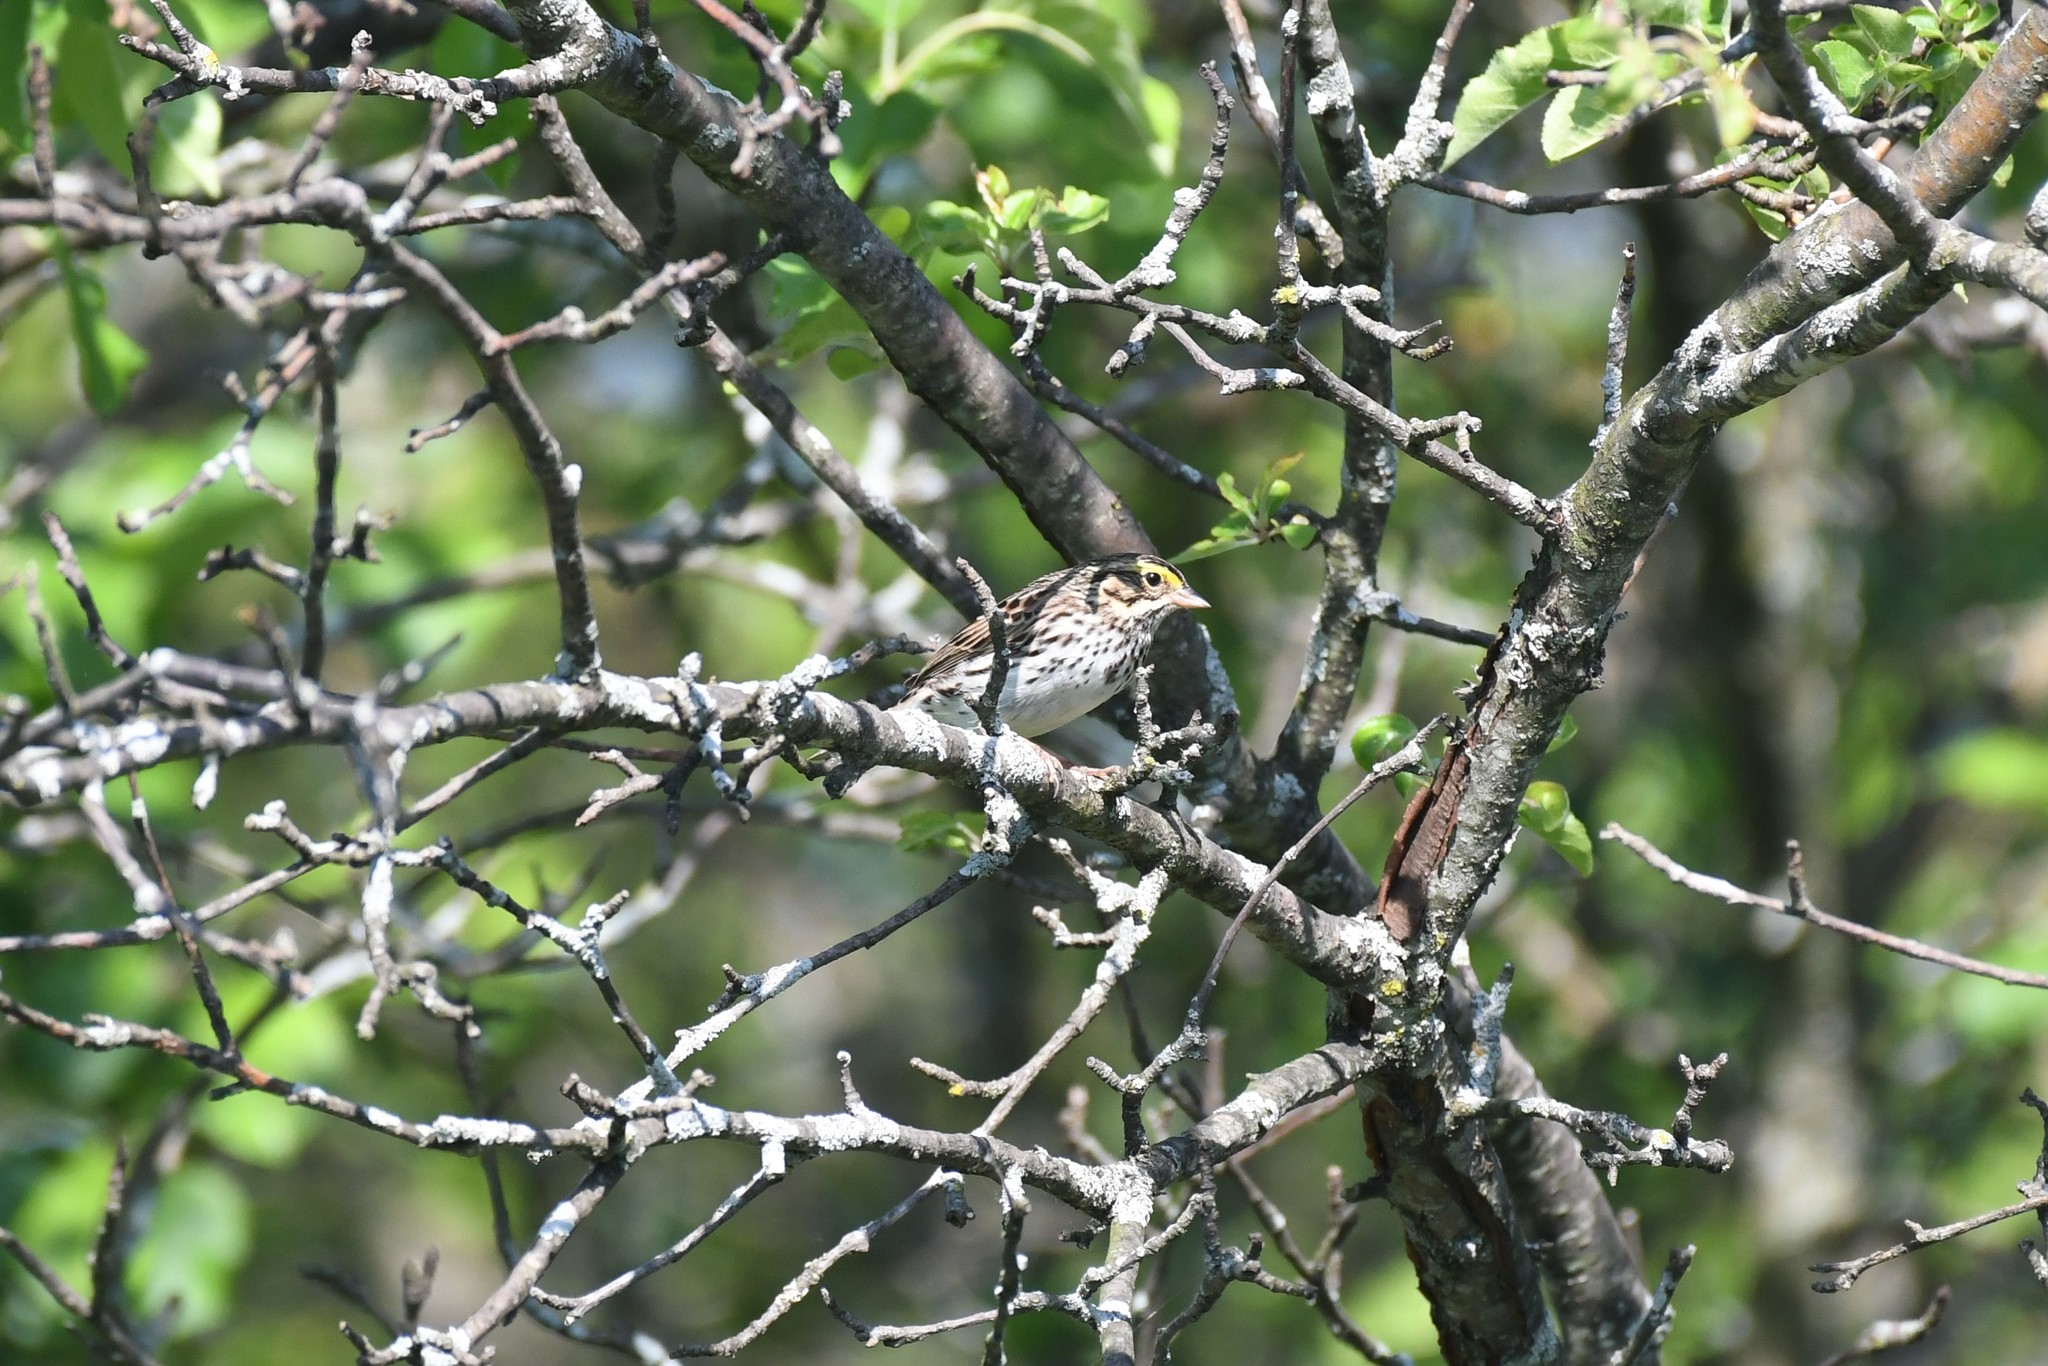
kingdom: Animalia
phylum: Chordata
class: Aves
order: Passeriformes
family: Passerellidae
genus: Passerculus
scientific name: Passerculus sandwichensis
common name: Savannah sparrow
